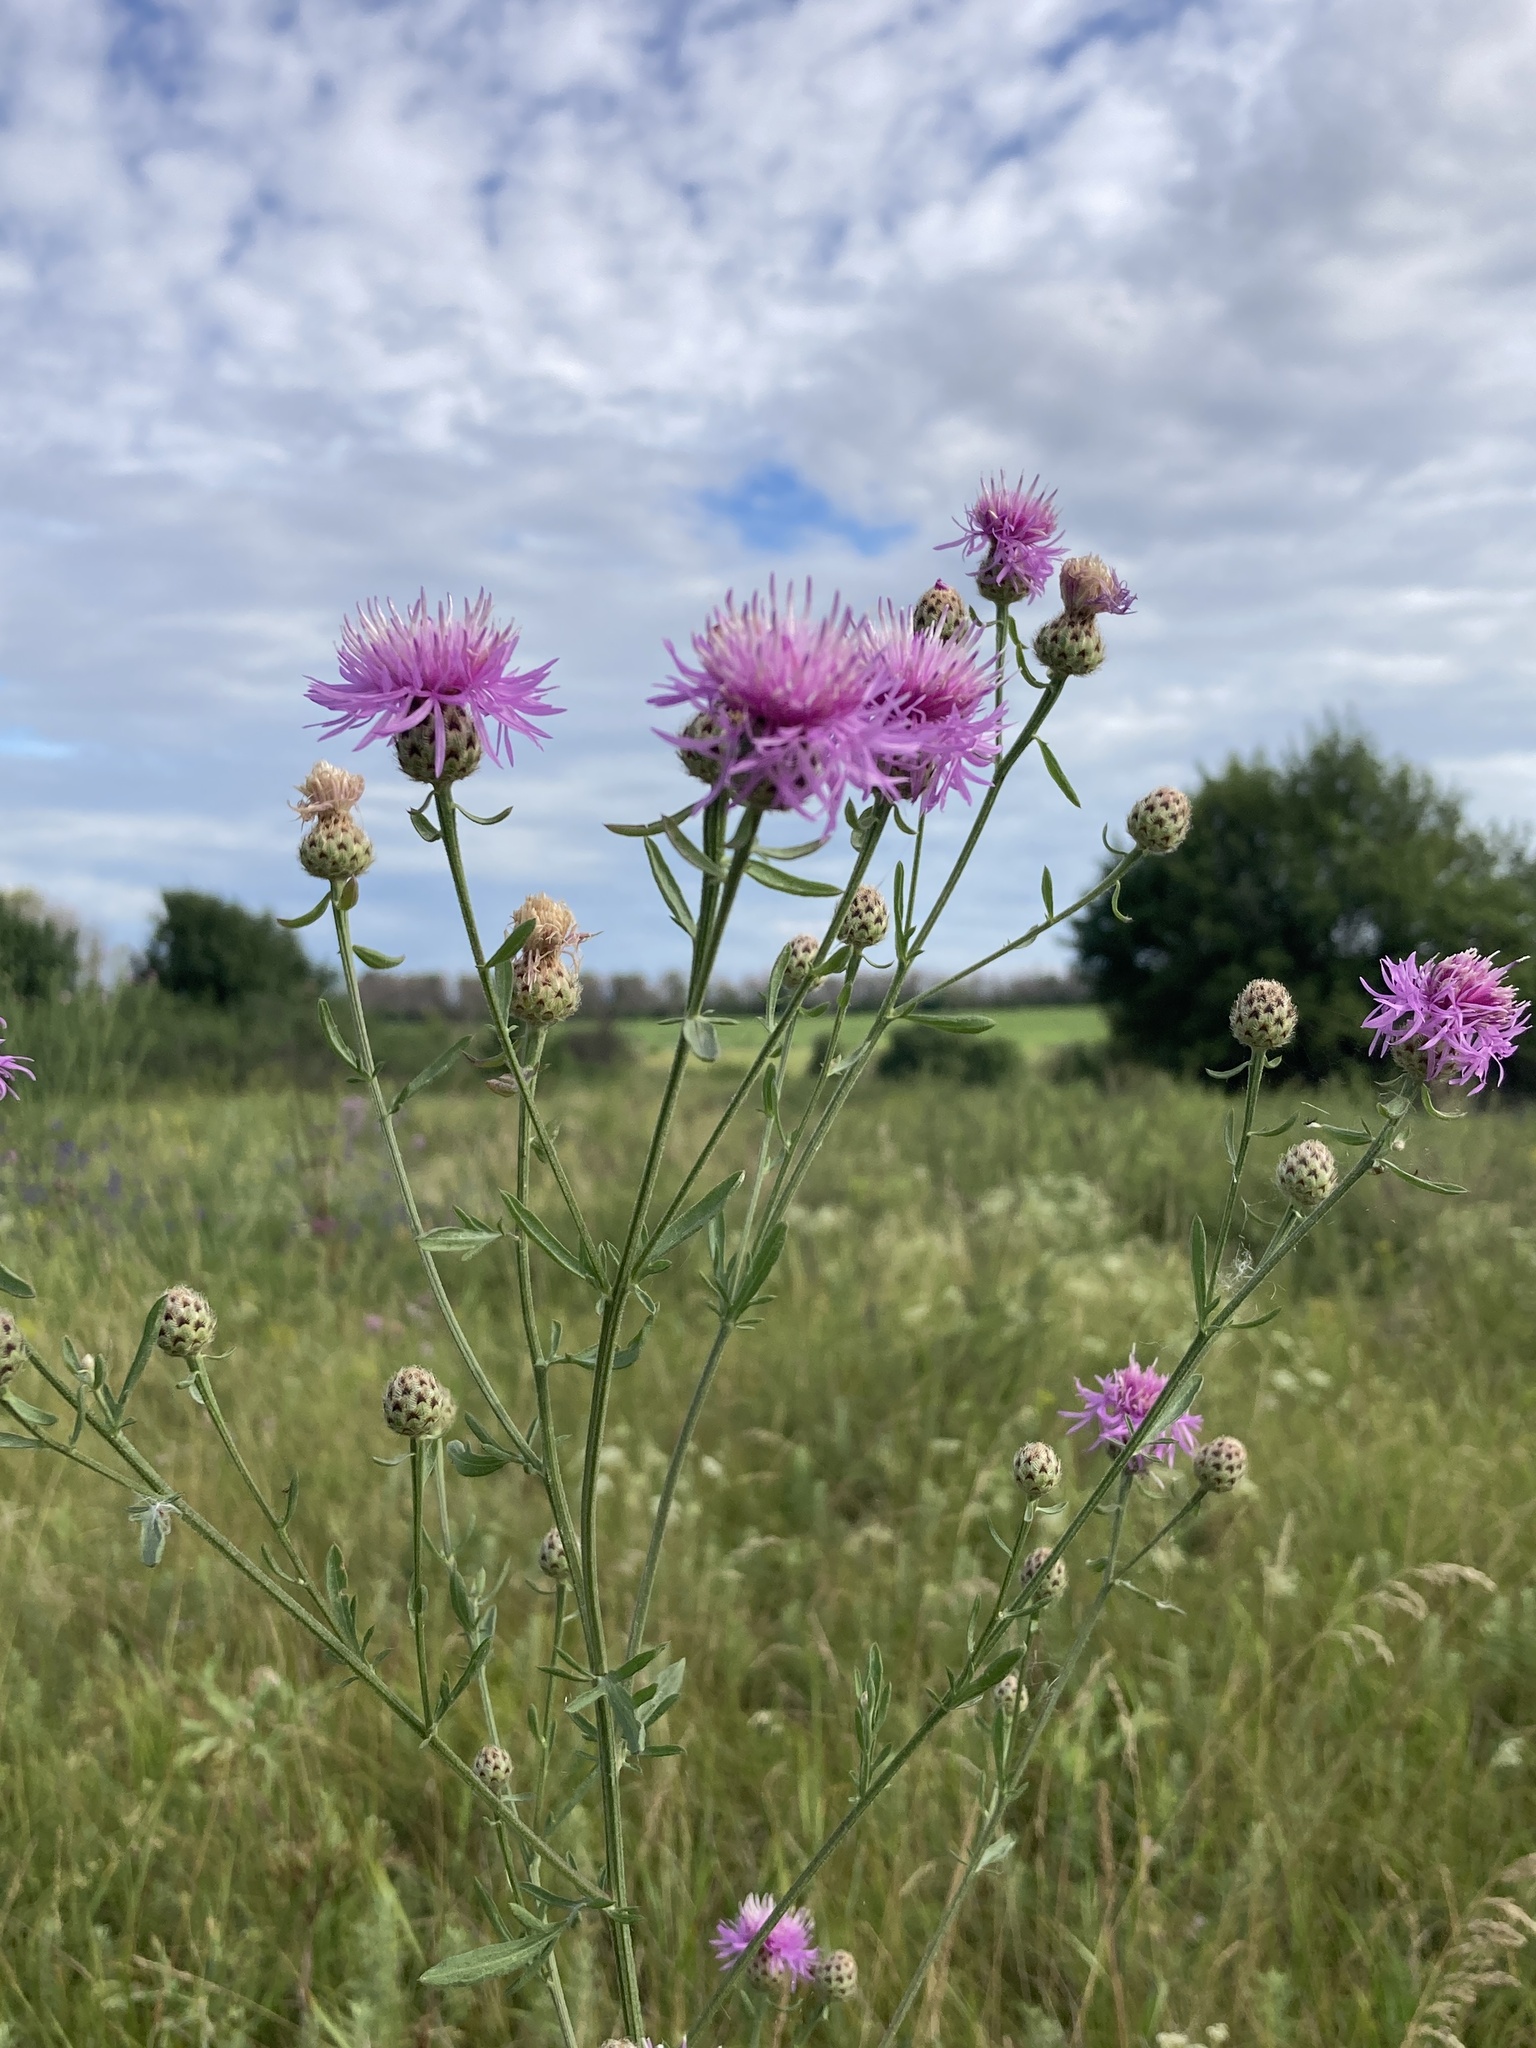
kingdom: Plantae
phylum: Tracheophyta
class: Magnoliopsida
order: Asterales
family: Asteraceae
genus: Centaurea
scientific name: Centaurea stoebe
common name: Spotted knapweed
